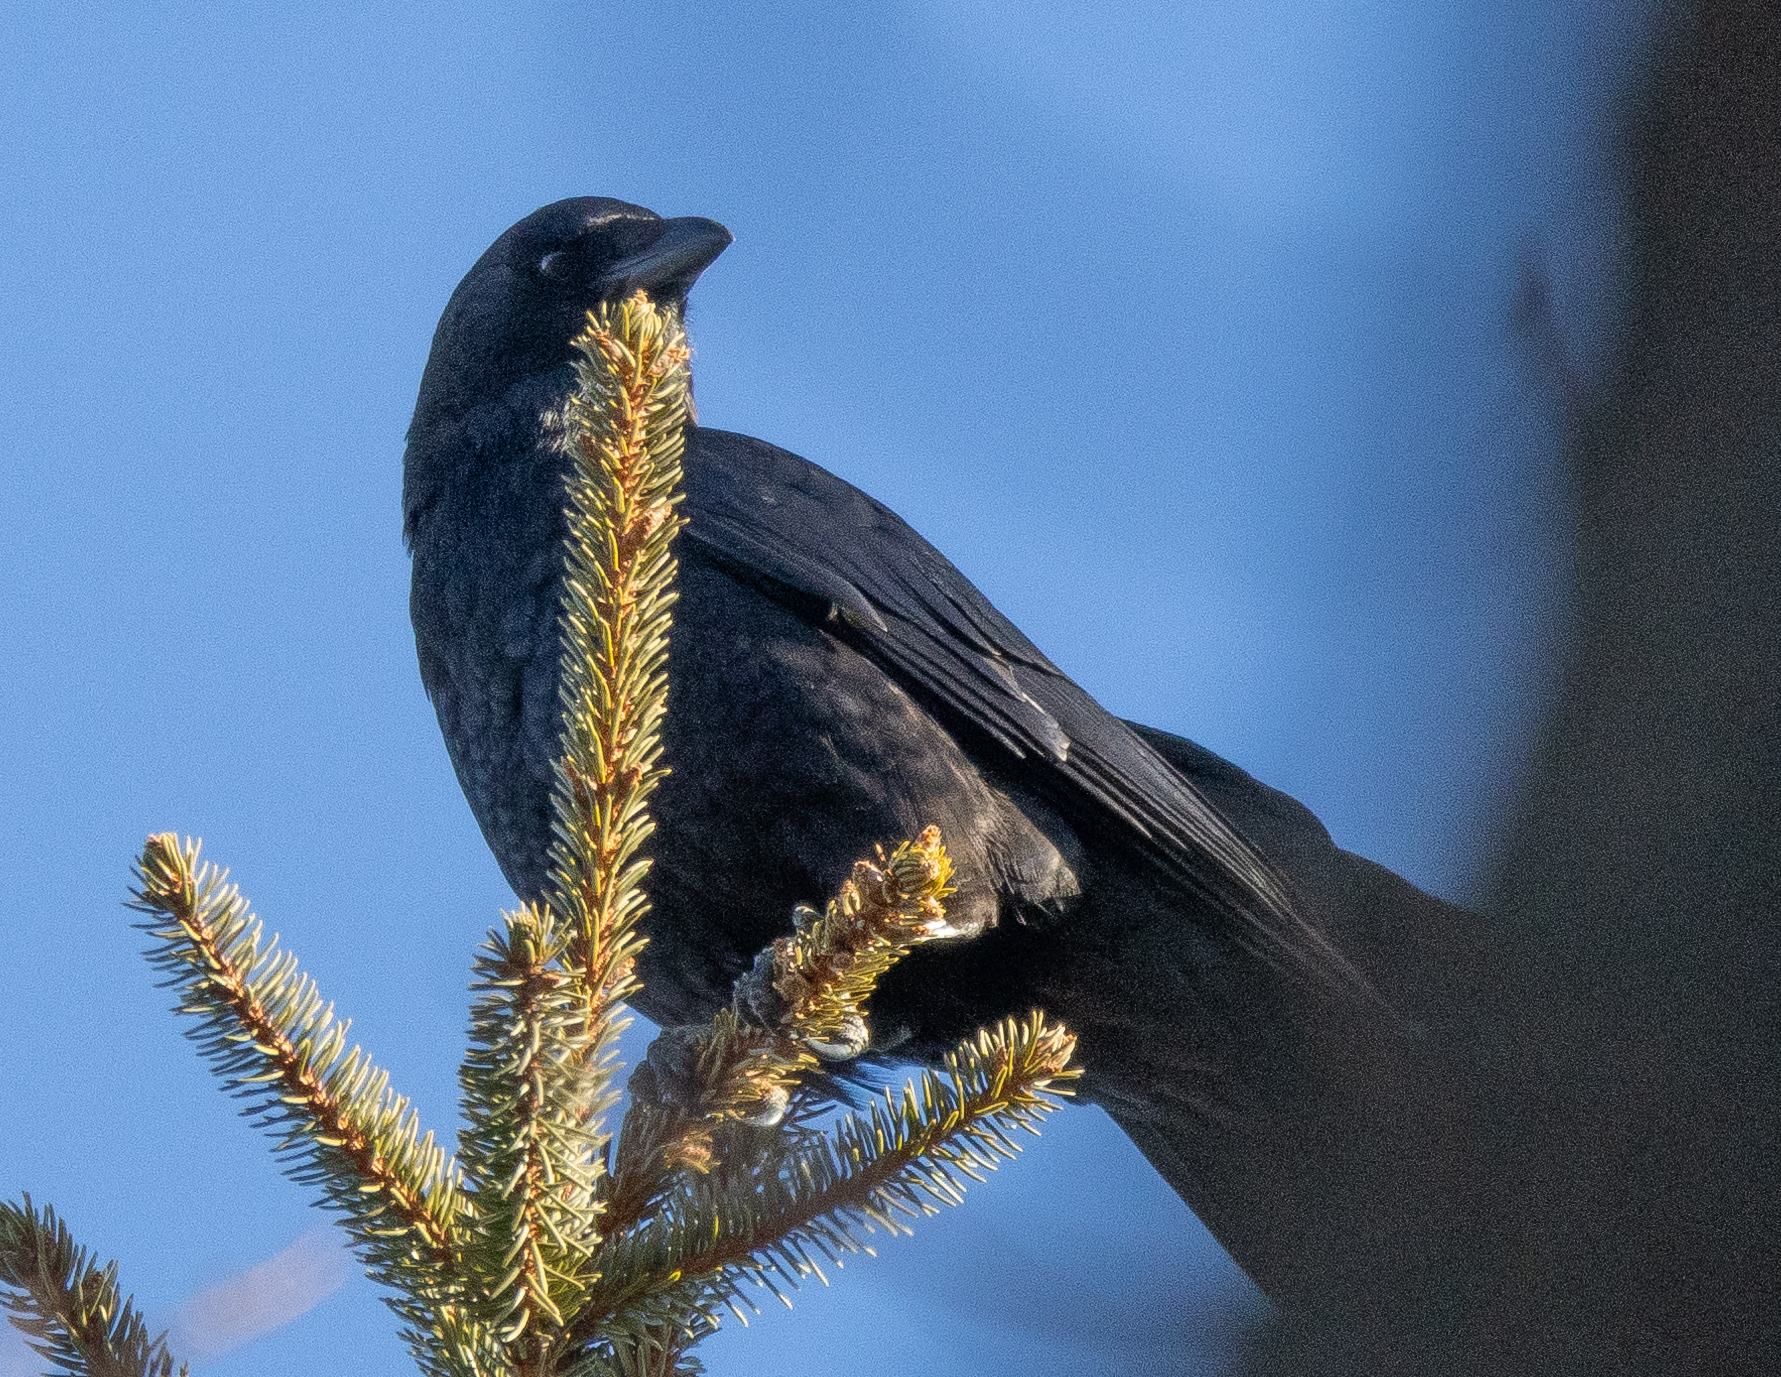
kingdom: Animalia
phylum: Chordata
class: Aves
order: Passeriformes
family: Corvidae
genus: Corvus
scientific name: Corvus brachyrhynchos
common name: American crow
